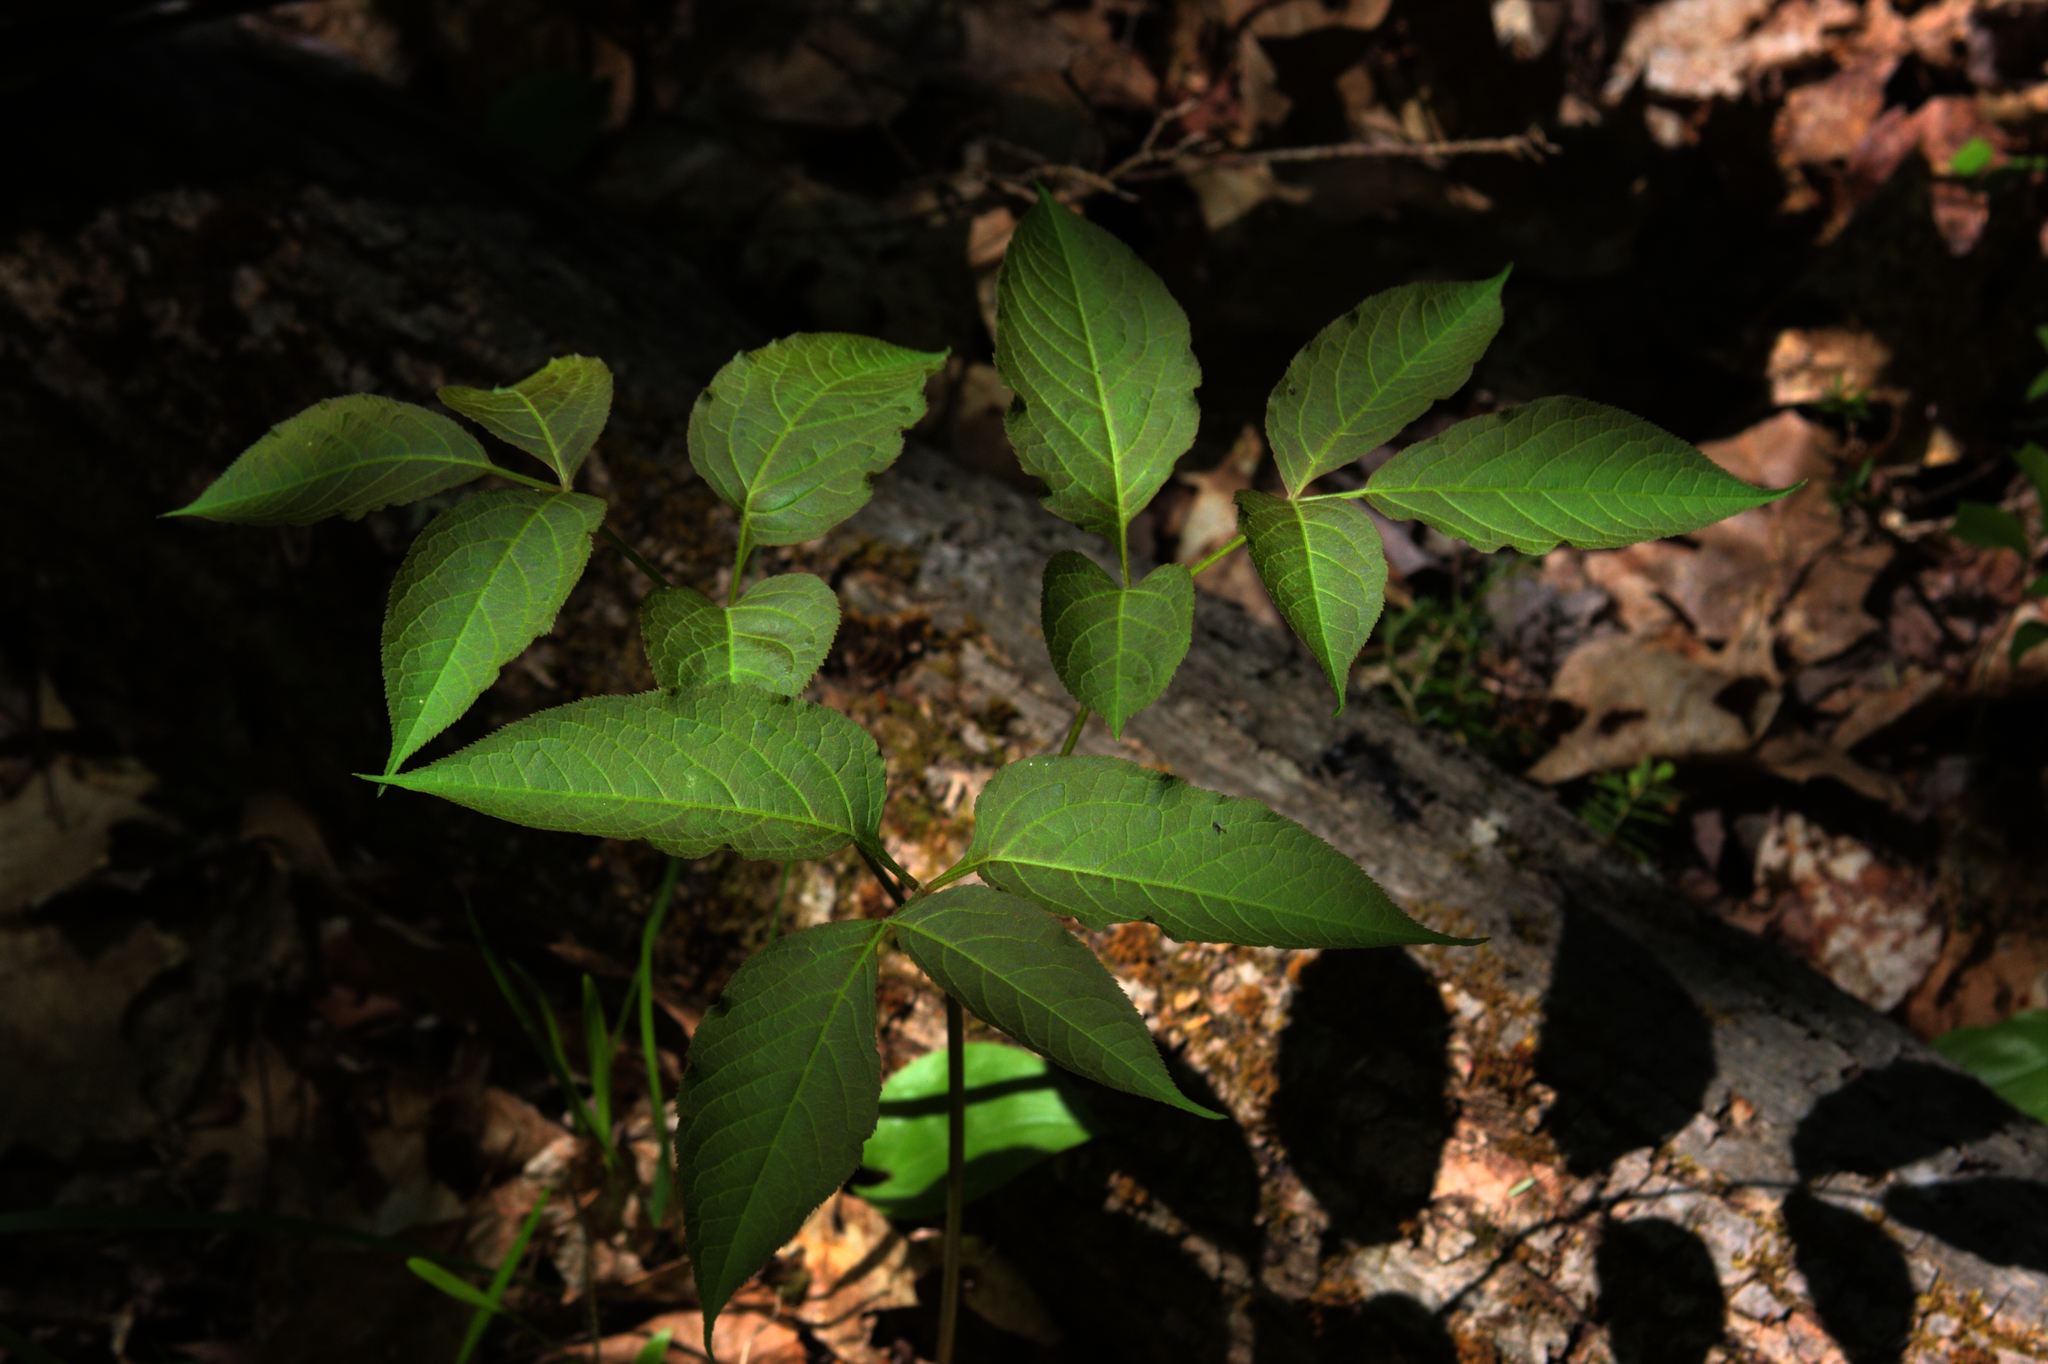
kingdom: Plantae
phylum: Tracheophyta
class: Magnoliopsida
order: Apiales
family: Araliaceae
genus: Aralia
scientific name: Aralia nudicaulis
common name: Wild sarsaparilla
